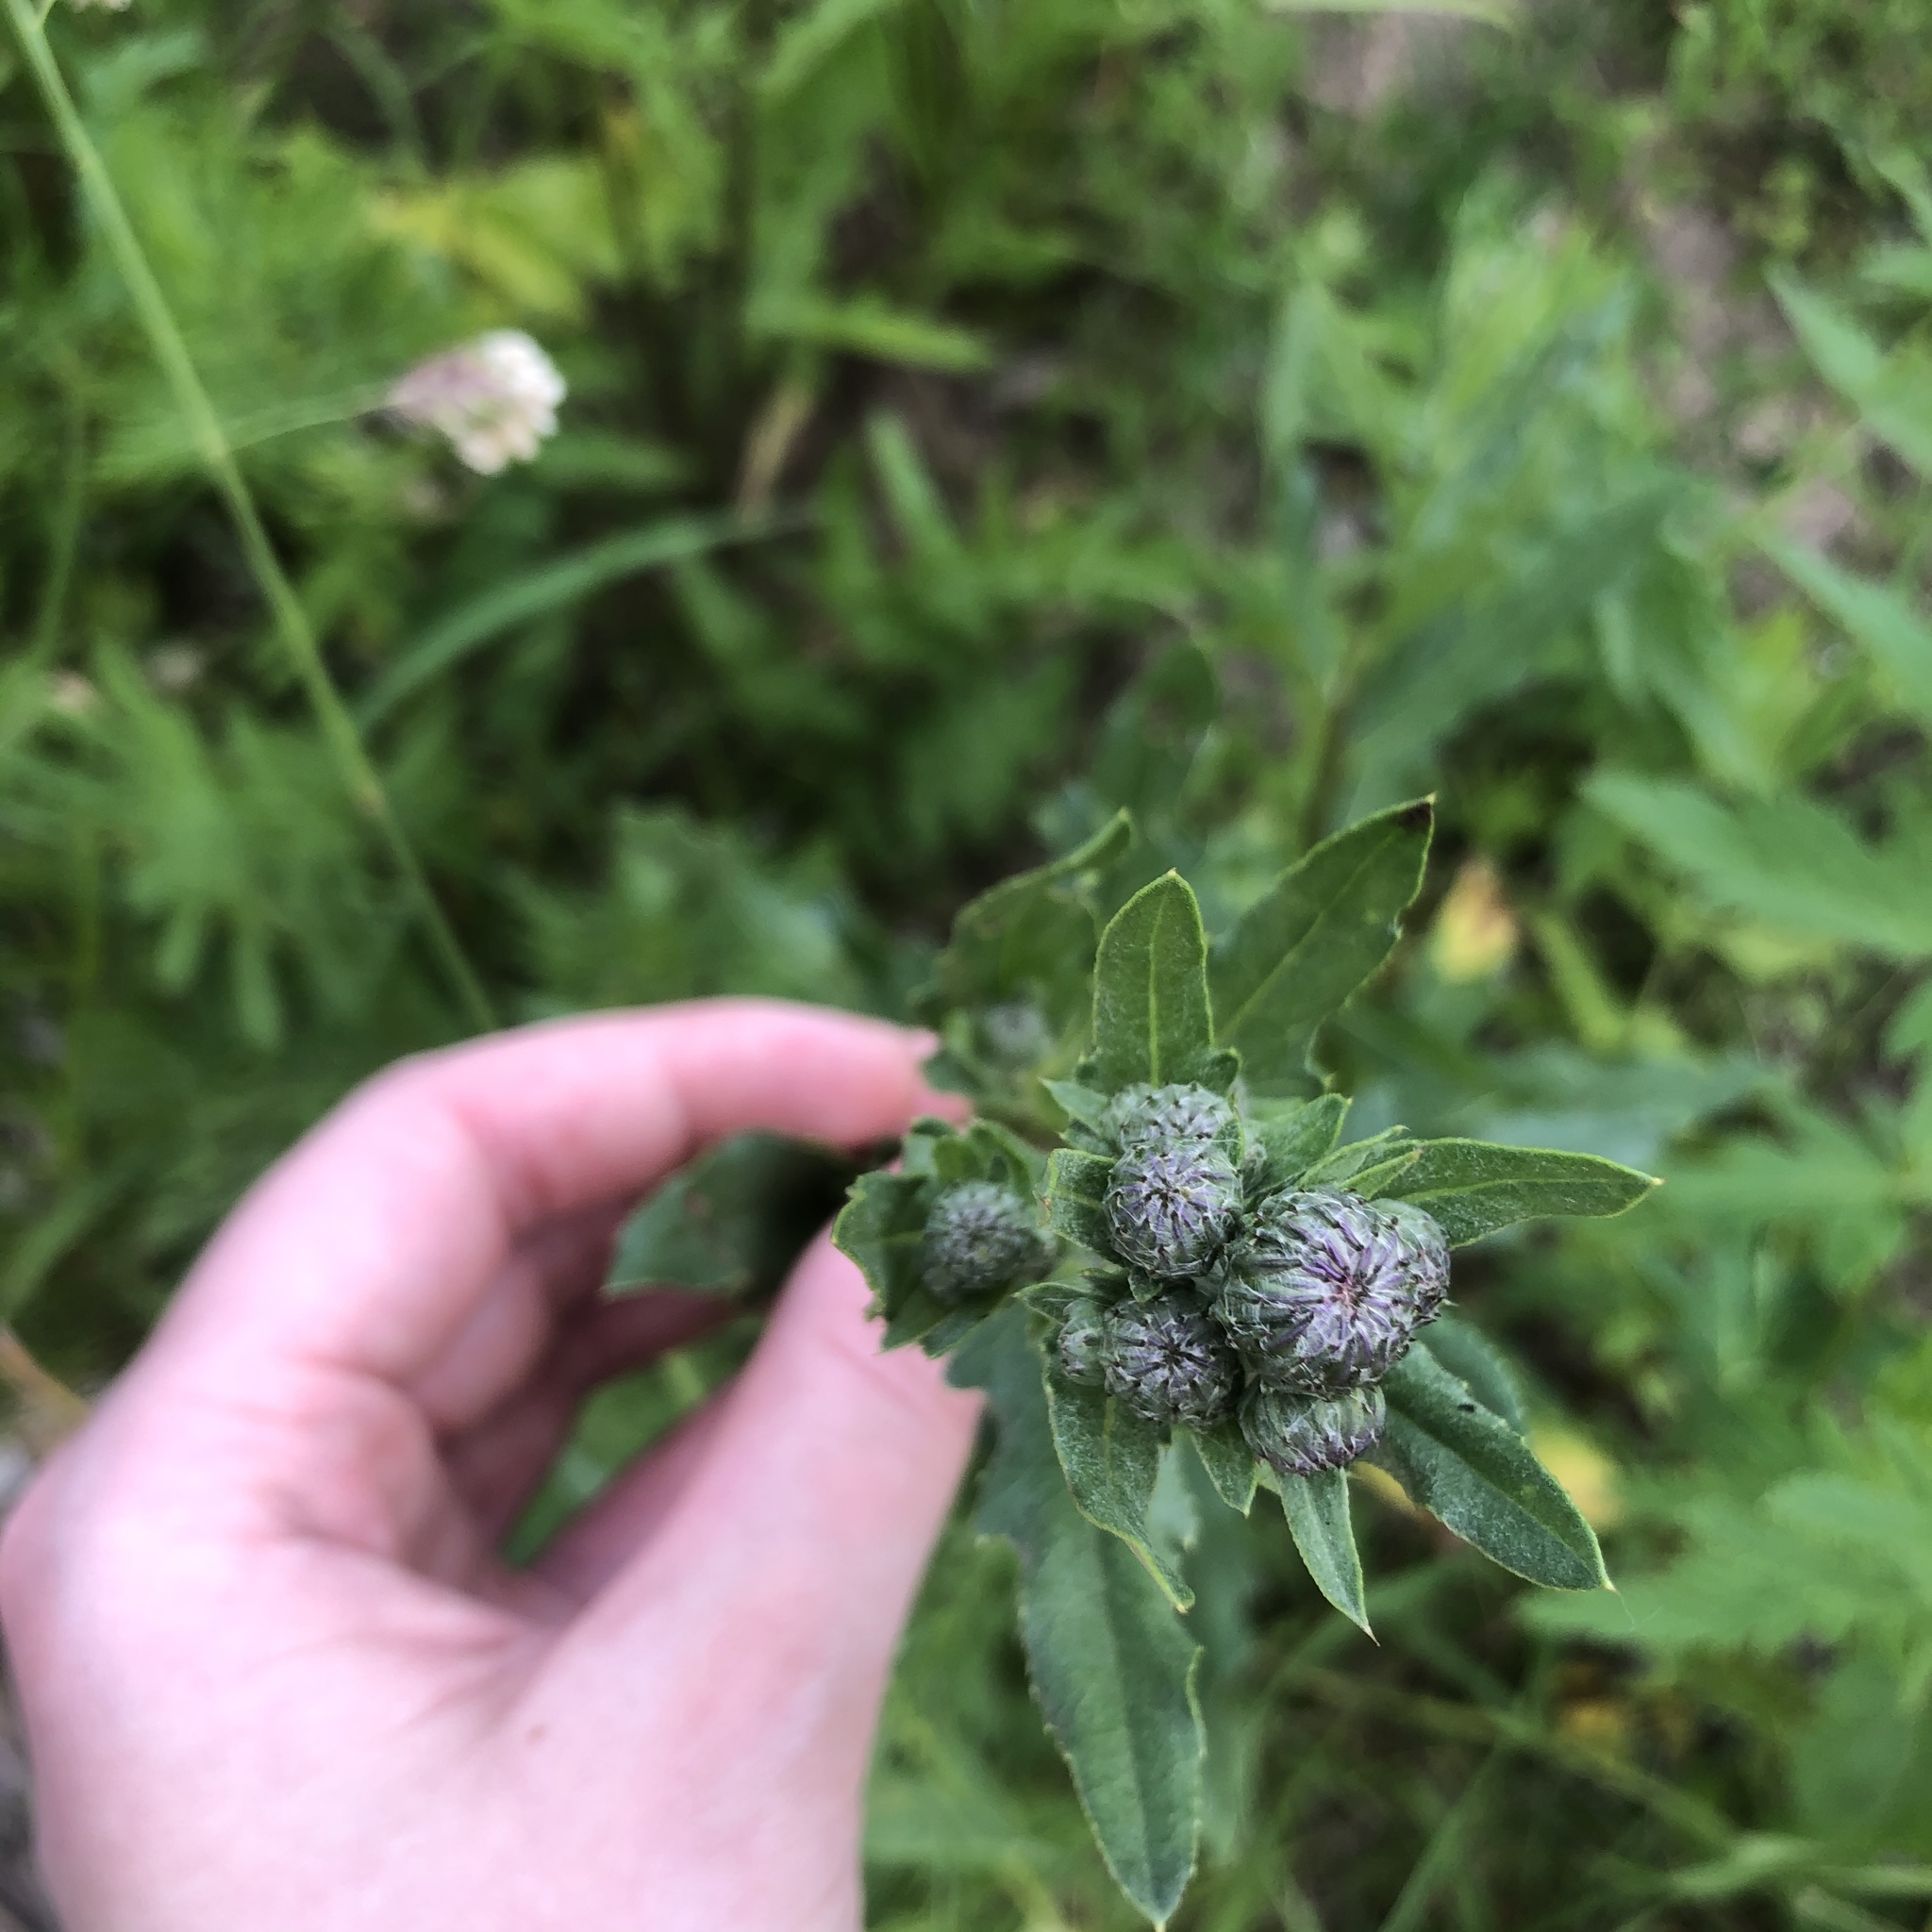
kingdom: Plantae
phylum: Tracheophyta
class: Magnoliopsida
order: Asterales
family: Asteraceae
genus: Cirsium
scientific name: Cirsium arvense
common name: Creeping thistle
